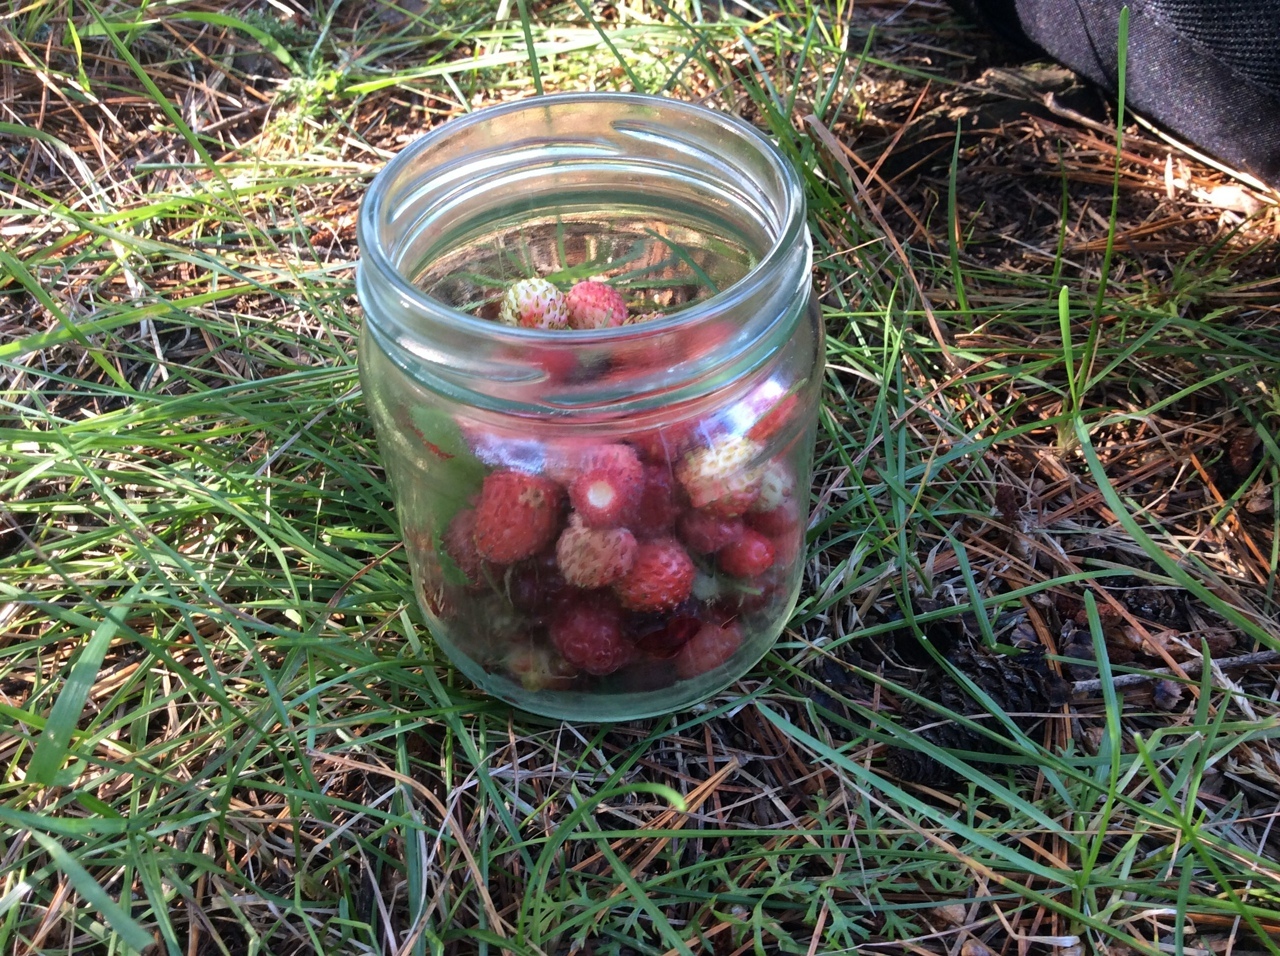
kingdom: Plantae
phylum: Tracheophyta
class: Magnoliopsida
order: Rosales
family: Rosaceae
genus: Fragaria
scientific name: Fragaria vesca
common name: Wild strawberry
